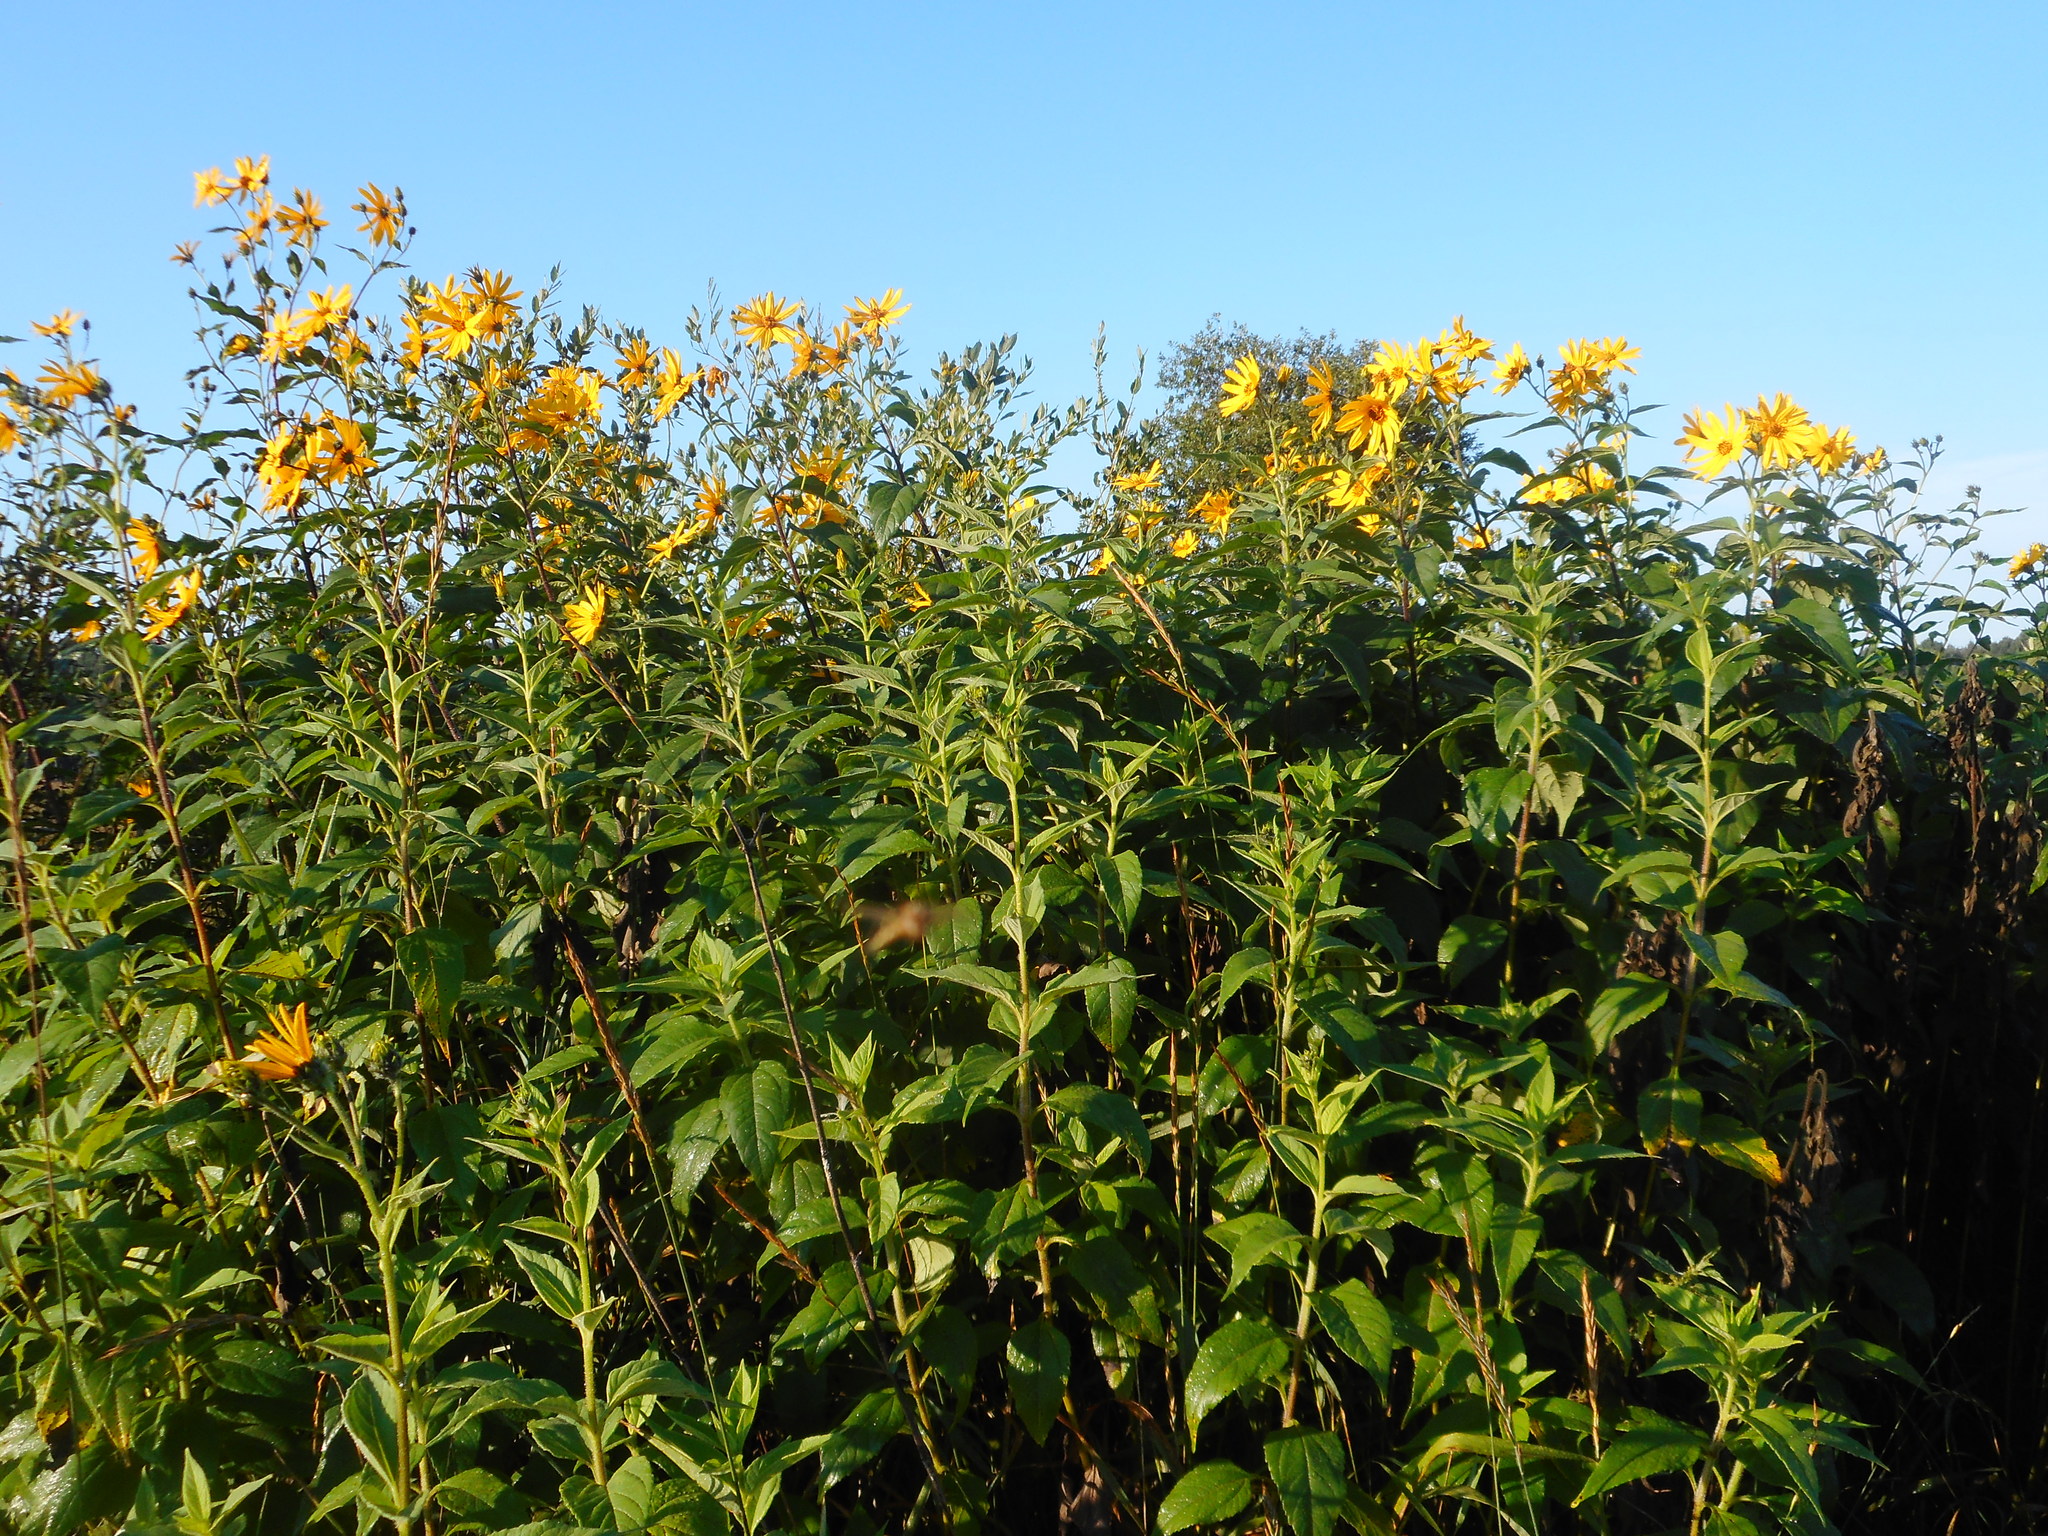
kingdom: Plantae
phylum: Tracheophyta
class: Magnoliopsida
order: Asterales
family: Asteraceae
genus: Helianthus
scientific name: Helianthus tuberosus
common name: Jerusalem artichoke
